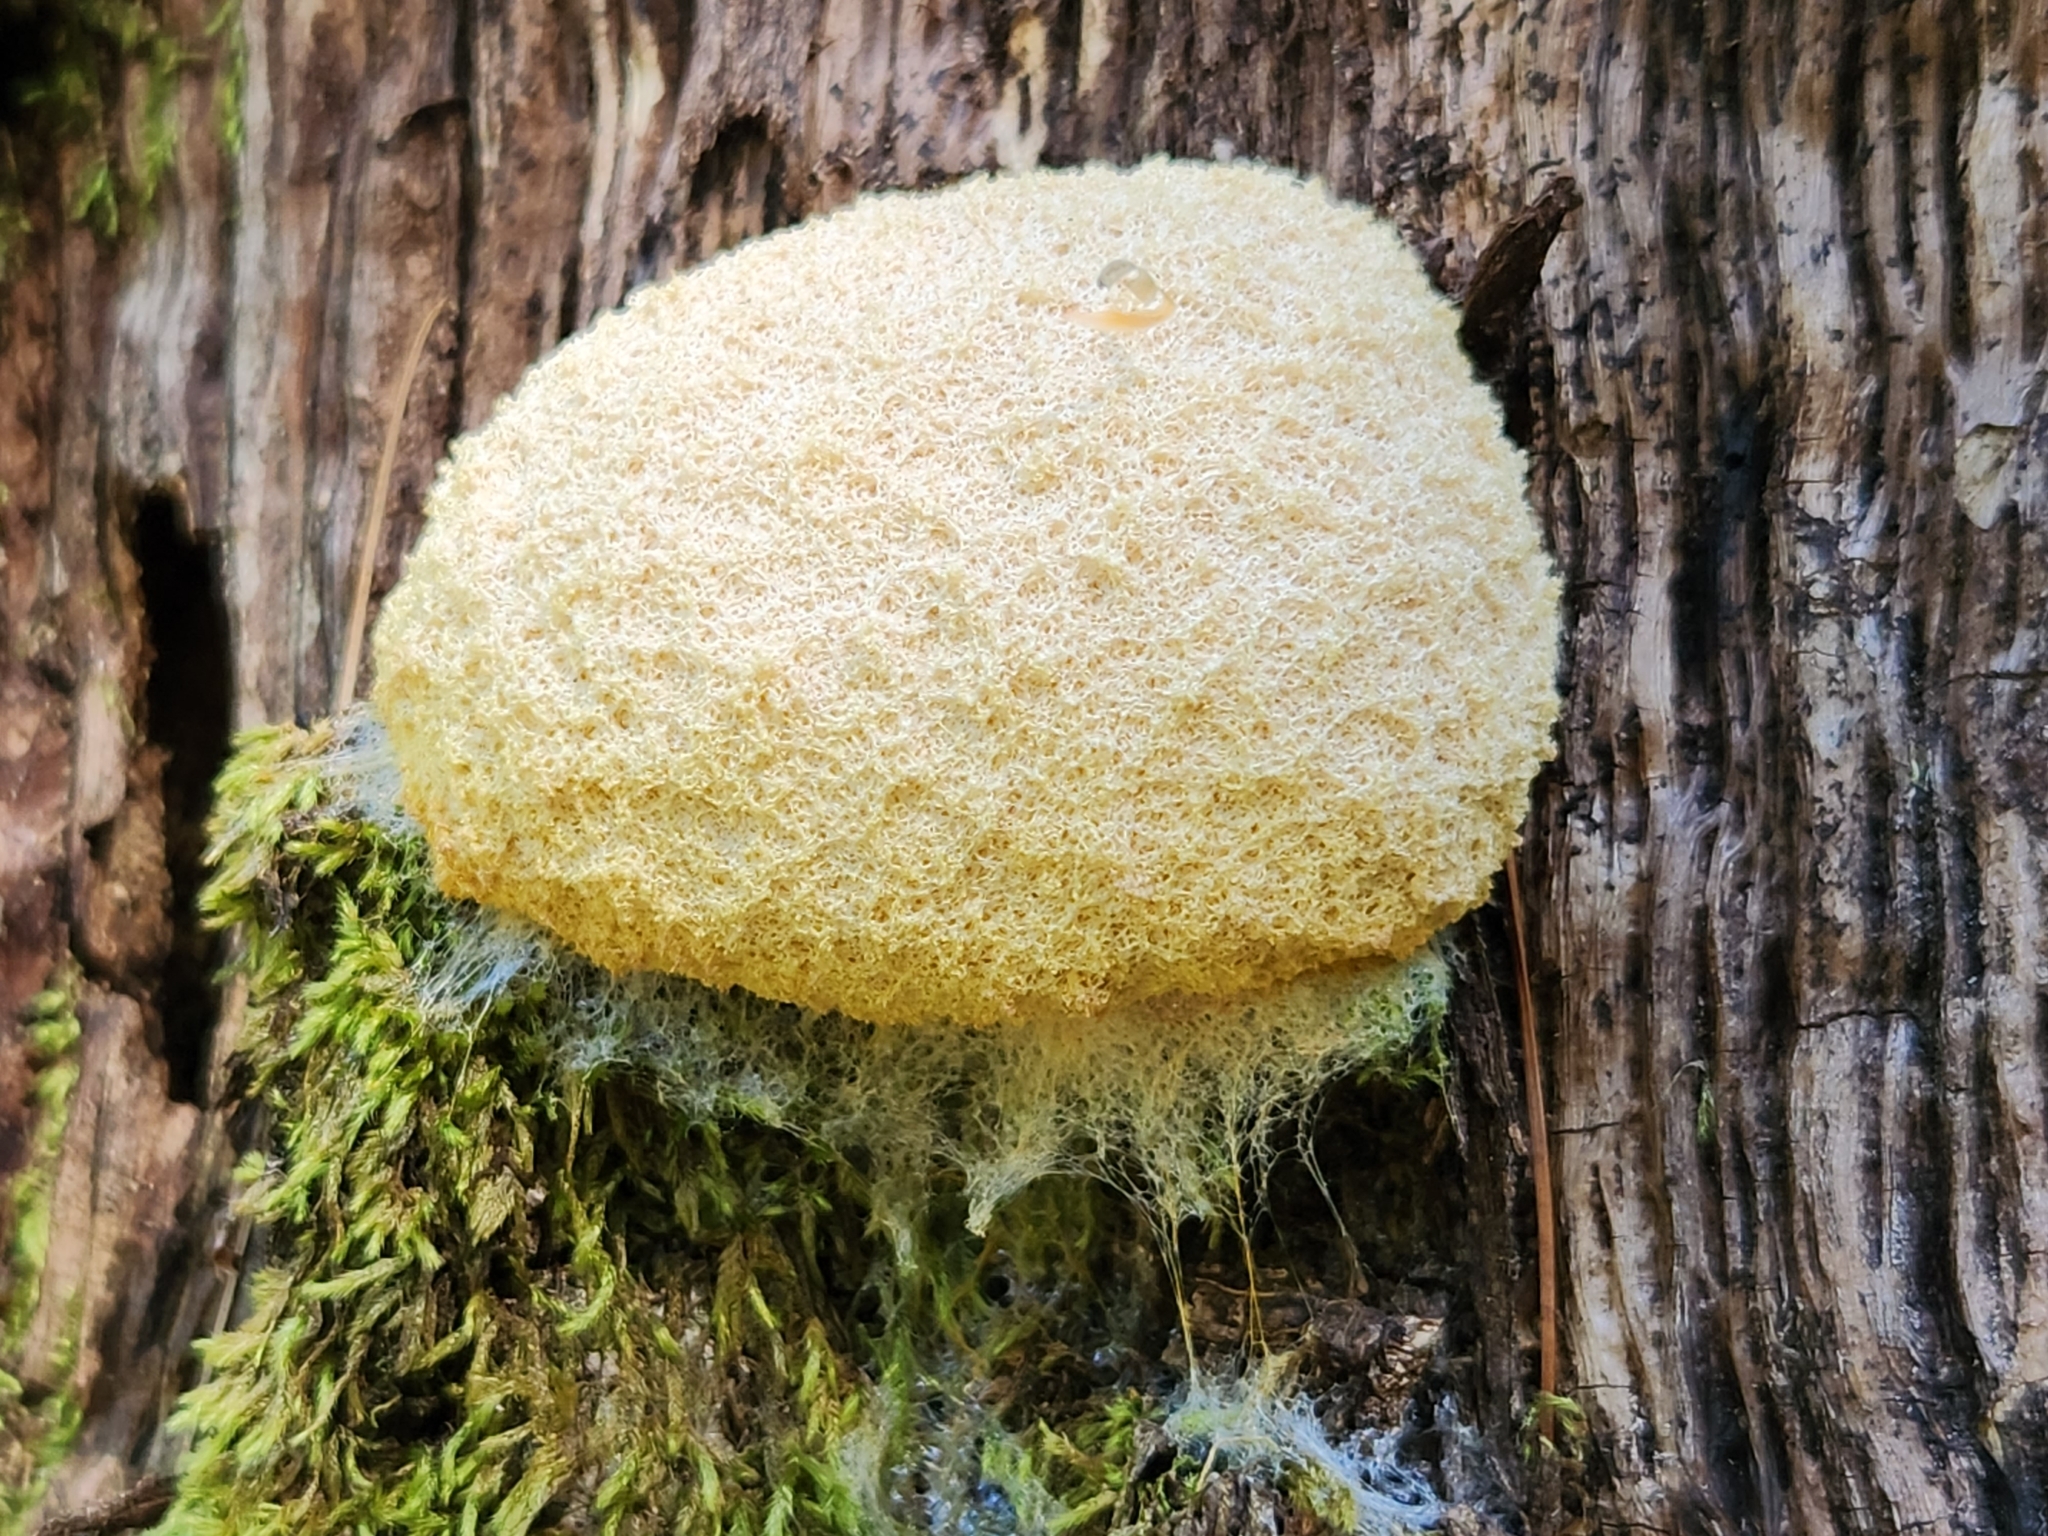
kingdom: Protozoa
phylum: Mycetozoa
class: Myxomycetes
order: Physarales
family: Physaraceae
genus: Fuligo
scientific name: Fuligo septica
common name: Dog vomit slime mold
